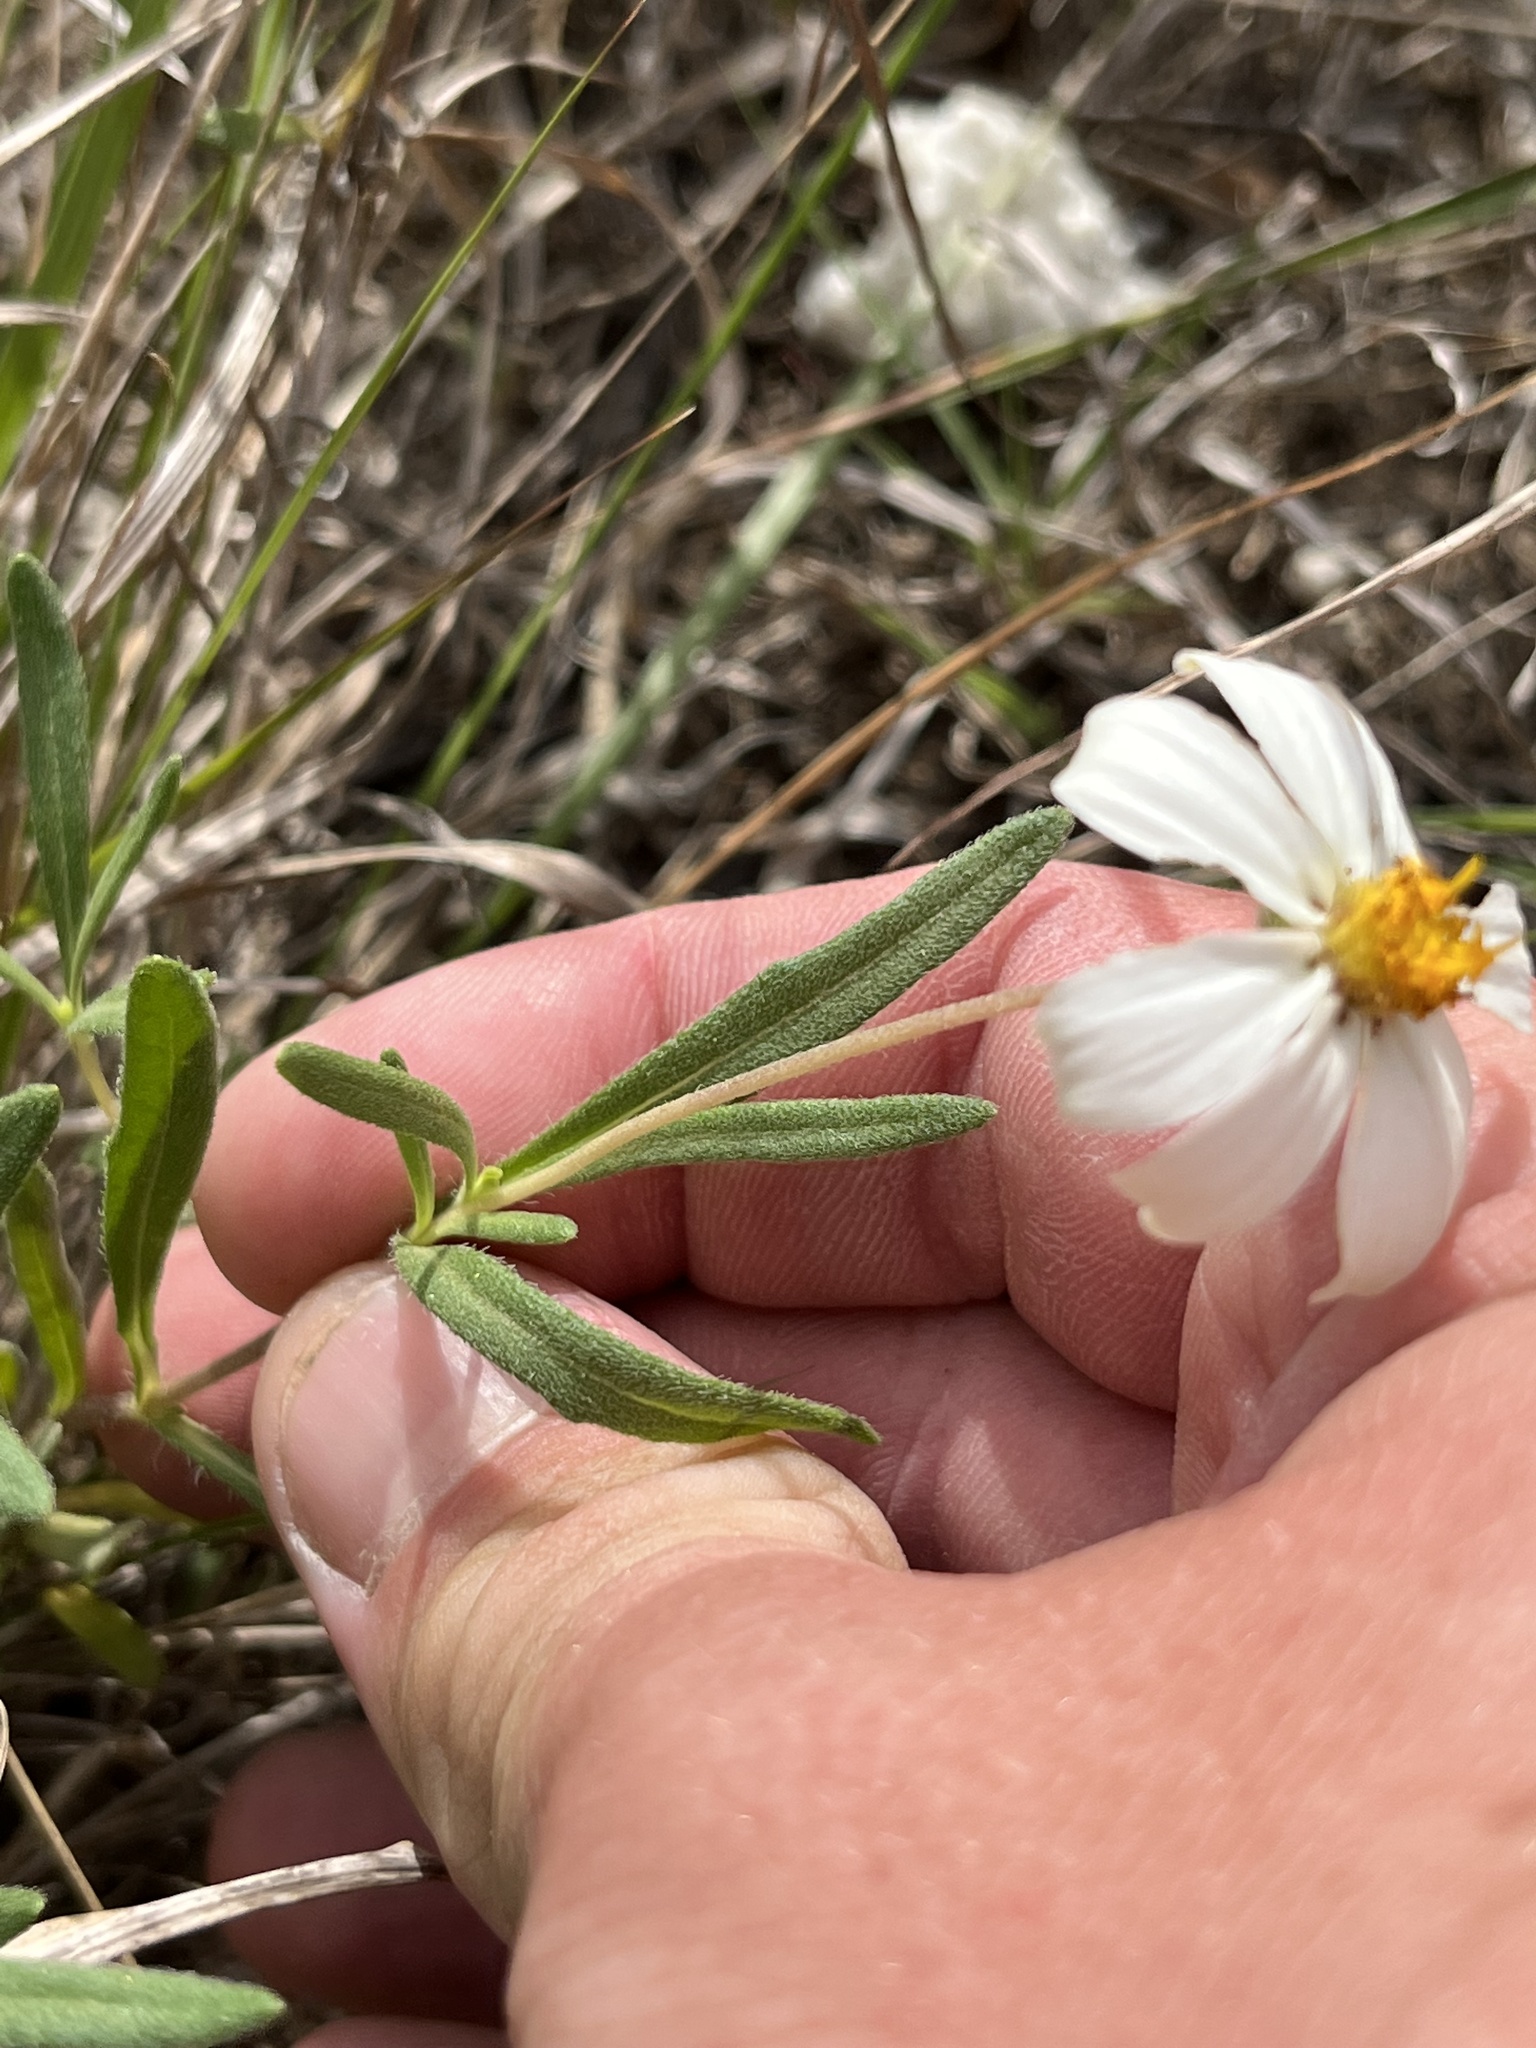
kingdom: Plantae
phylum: Tracheophyta
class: Magnoliopsida
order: Asterales
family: Asteraceae
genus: Melampodium
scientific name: Melampodium leucanthum
